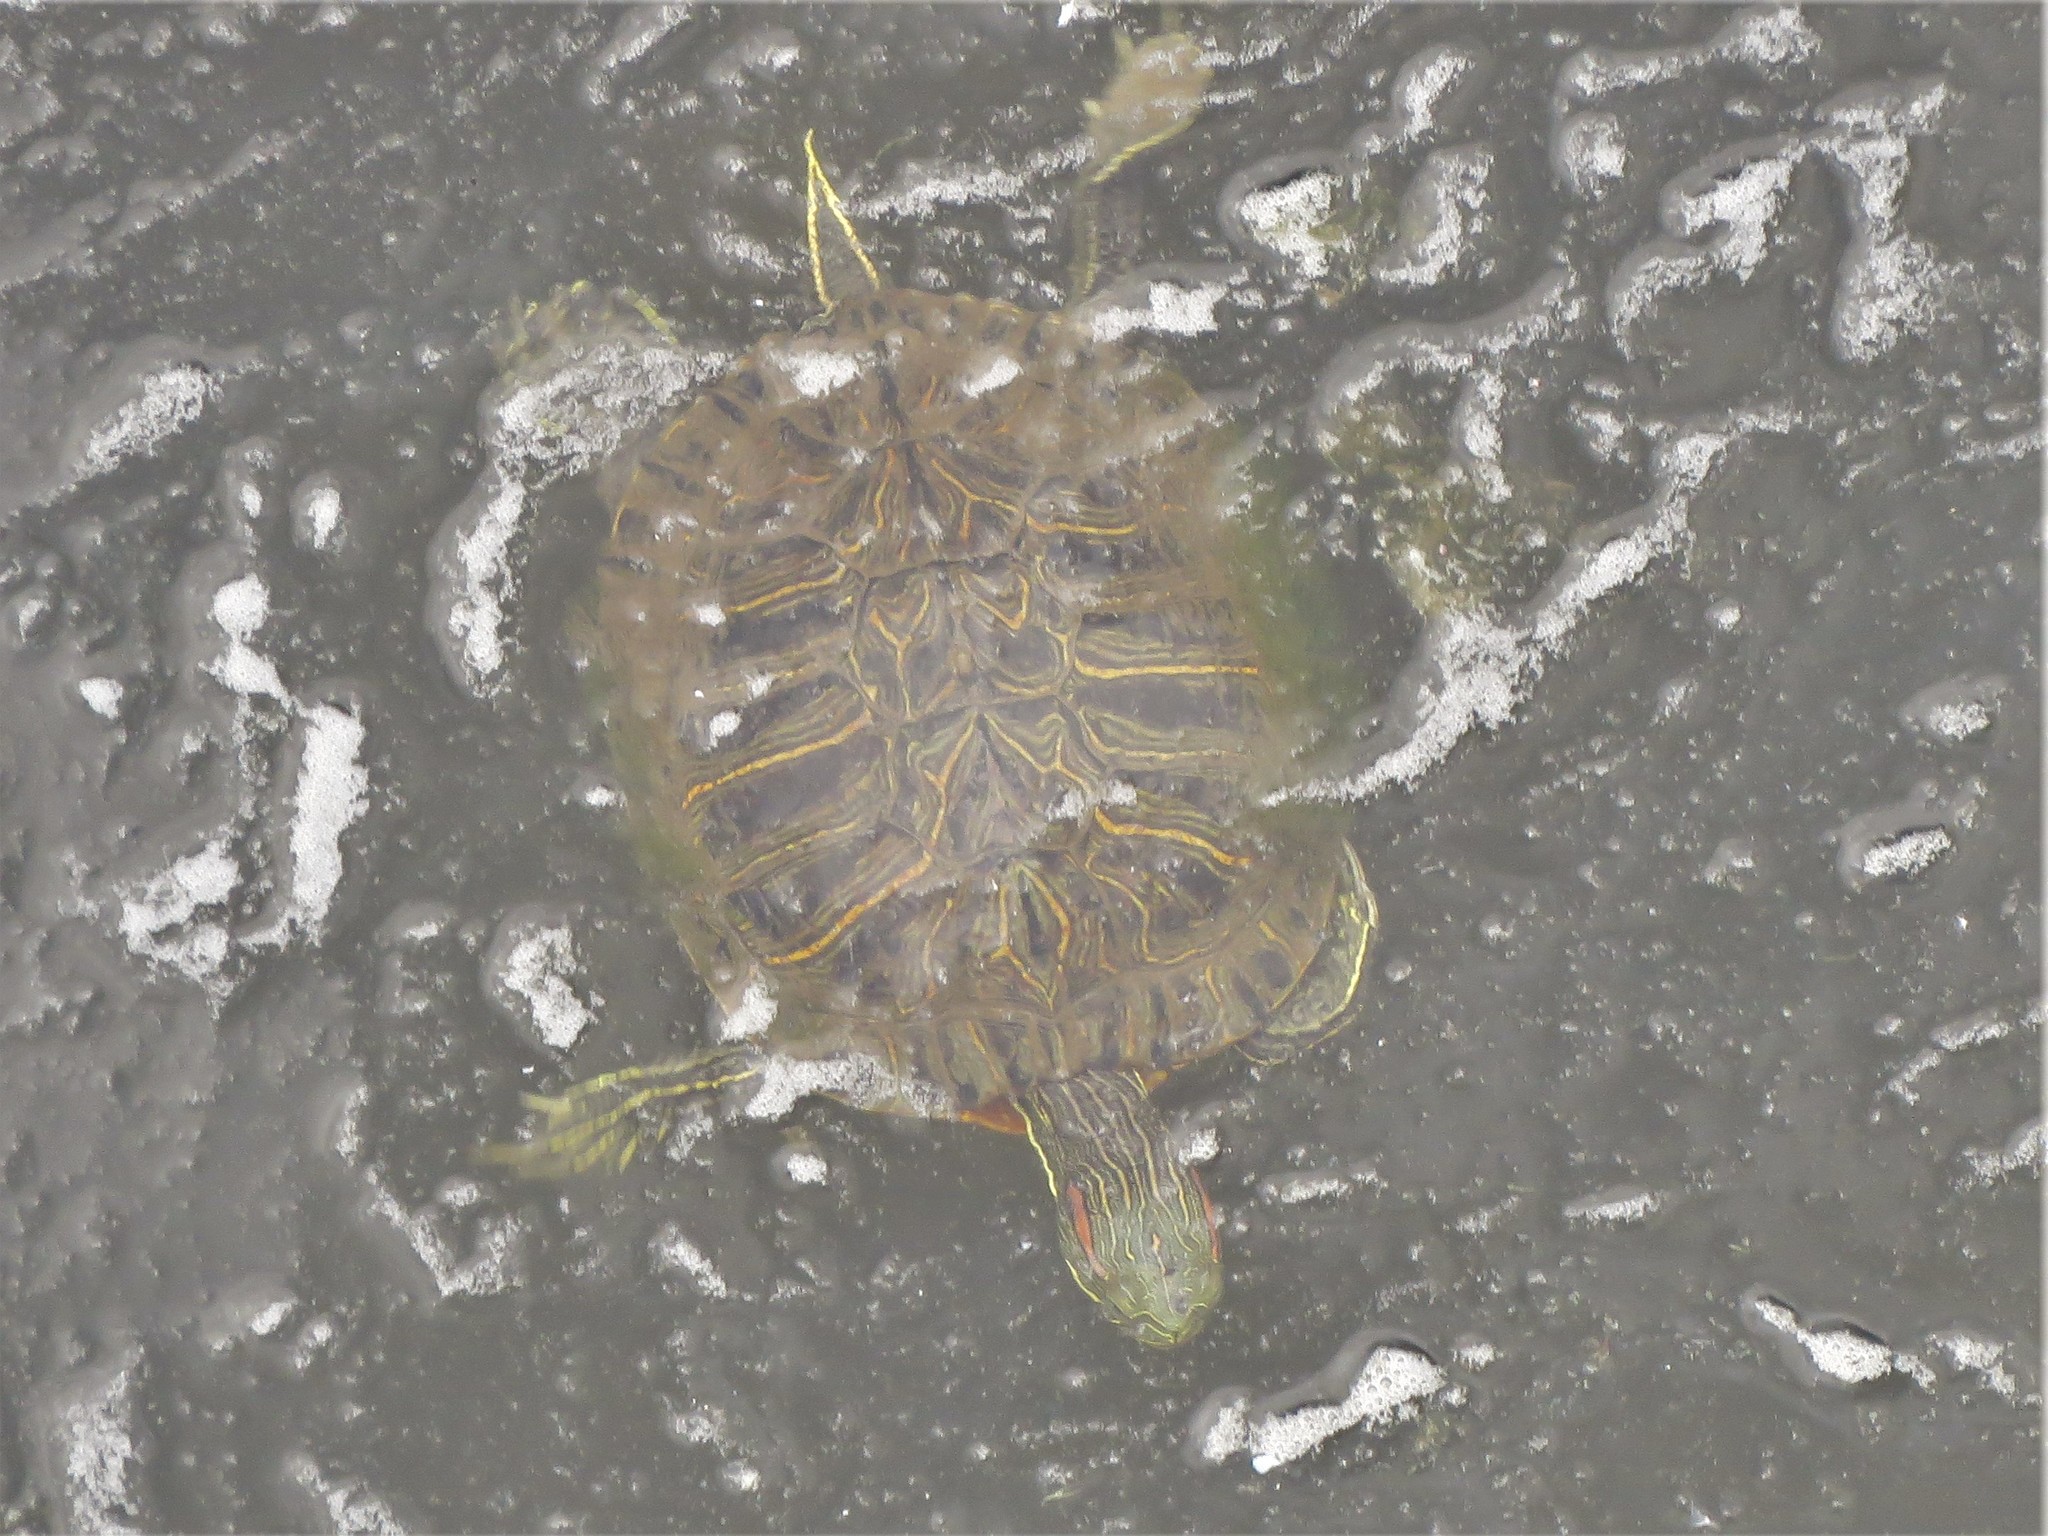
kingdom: Animalia
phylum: Chordata
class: Testudines
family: Emydidae
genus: Trachemys
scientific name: Trachemys scripta
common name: Slider
